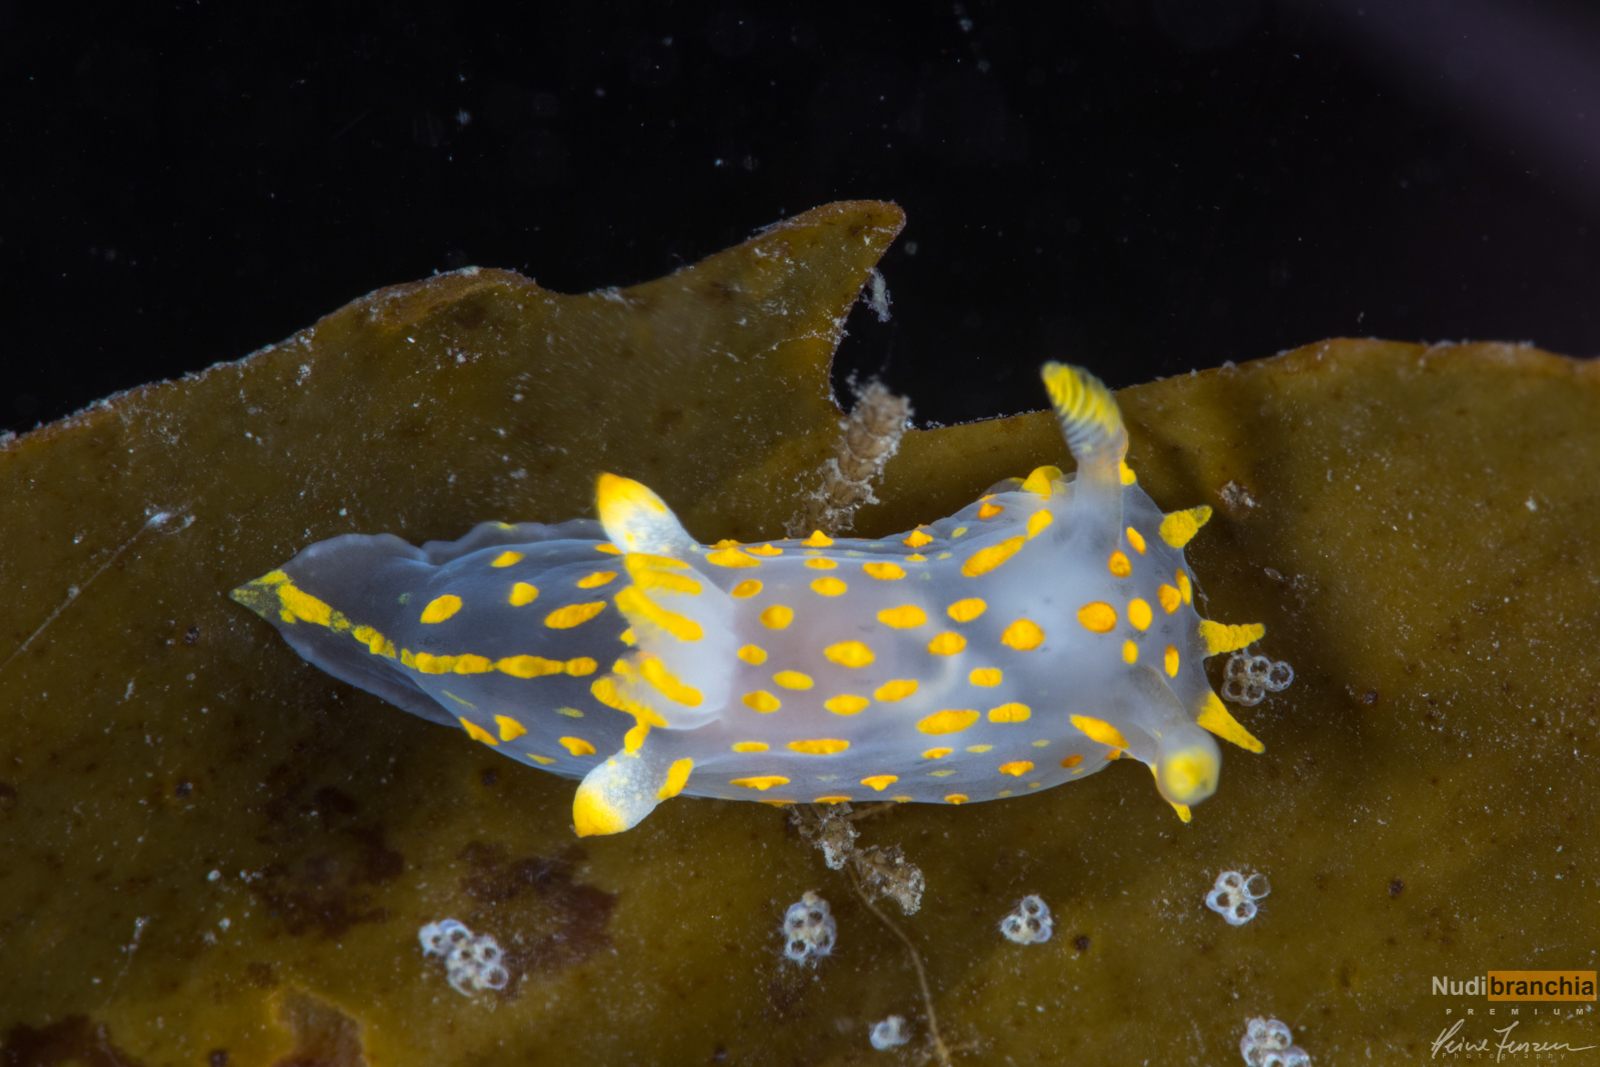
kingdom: Animalia
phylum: Mollusca
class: Gastropoda
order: Nudibranchia
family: Polyceridae
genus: Polycera
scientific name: Polycera quadrilineata
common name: Four-striped polycera
